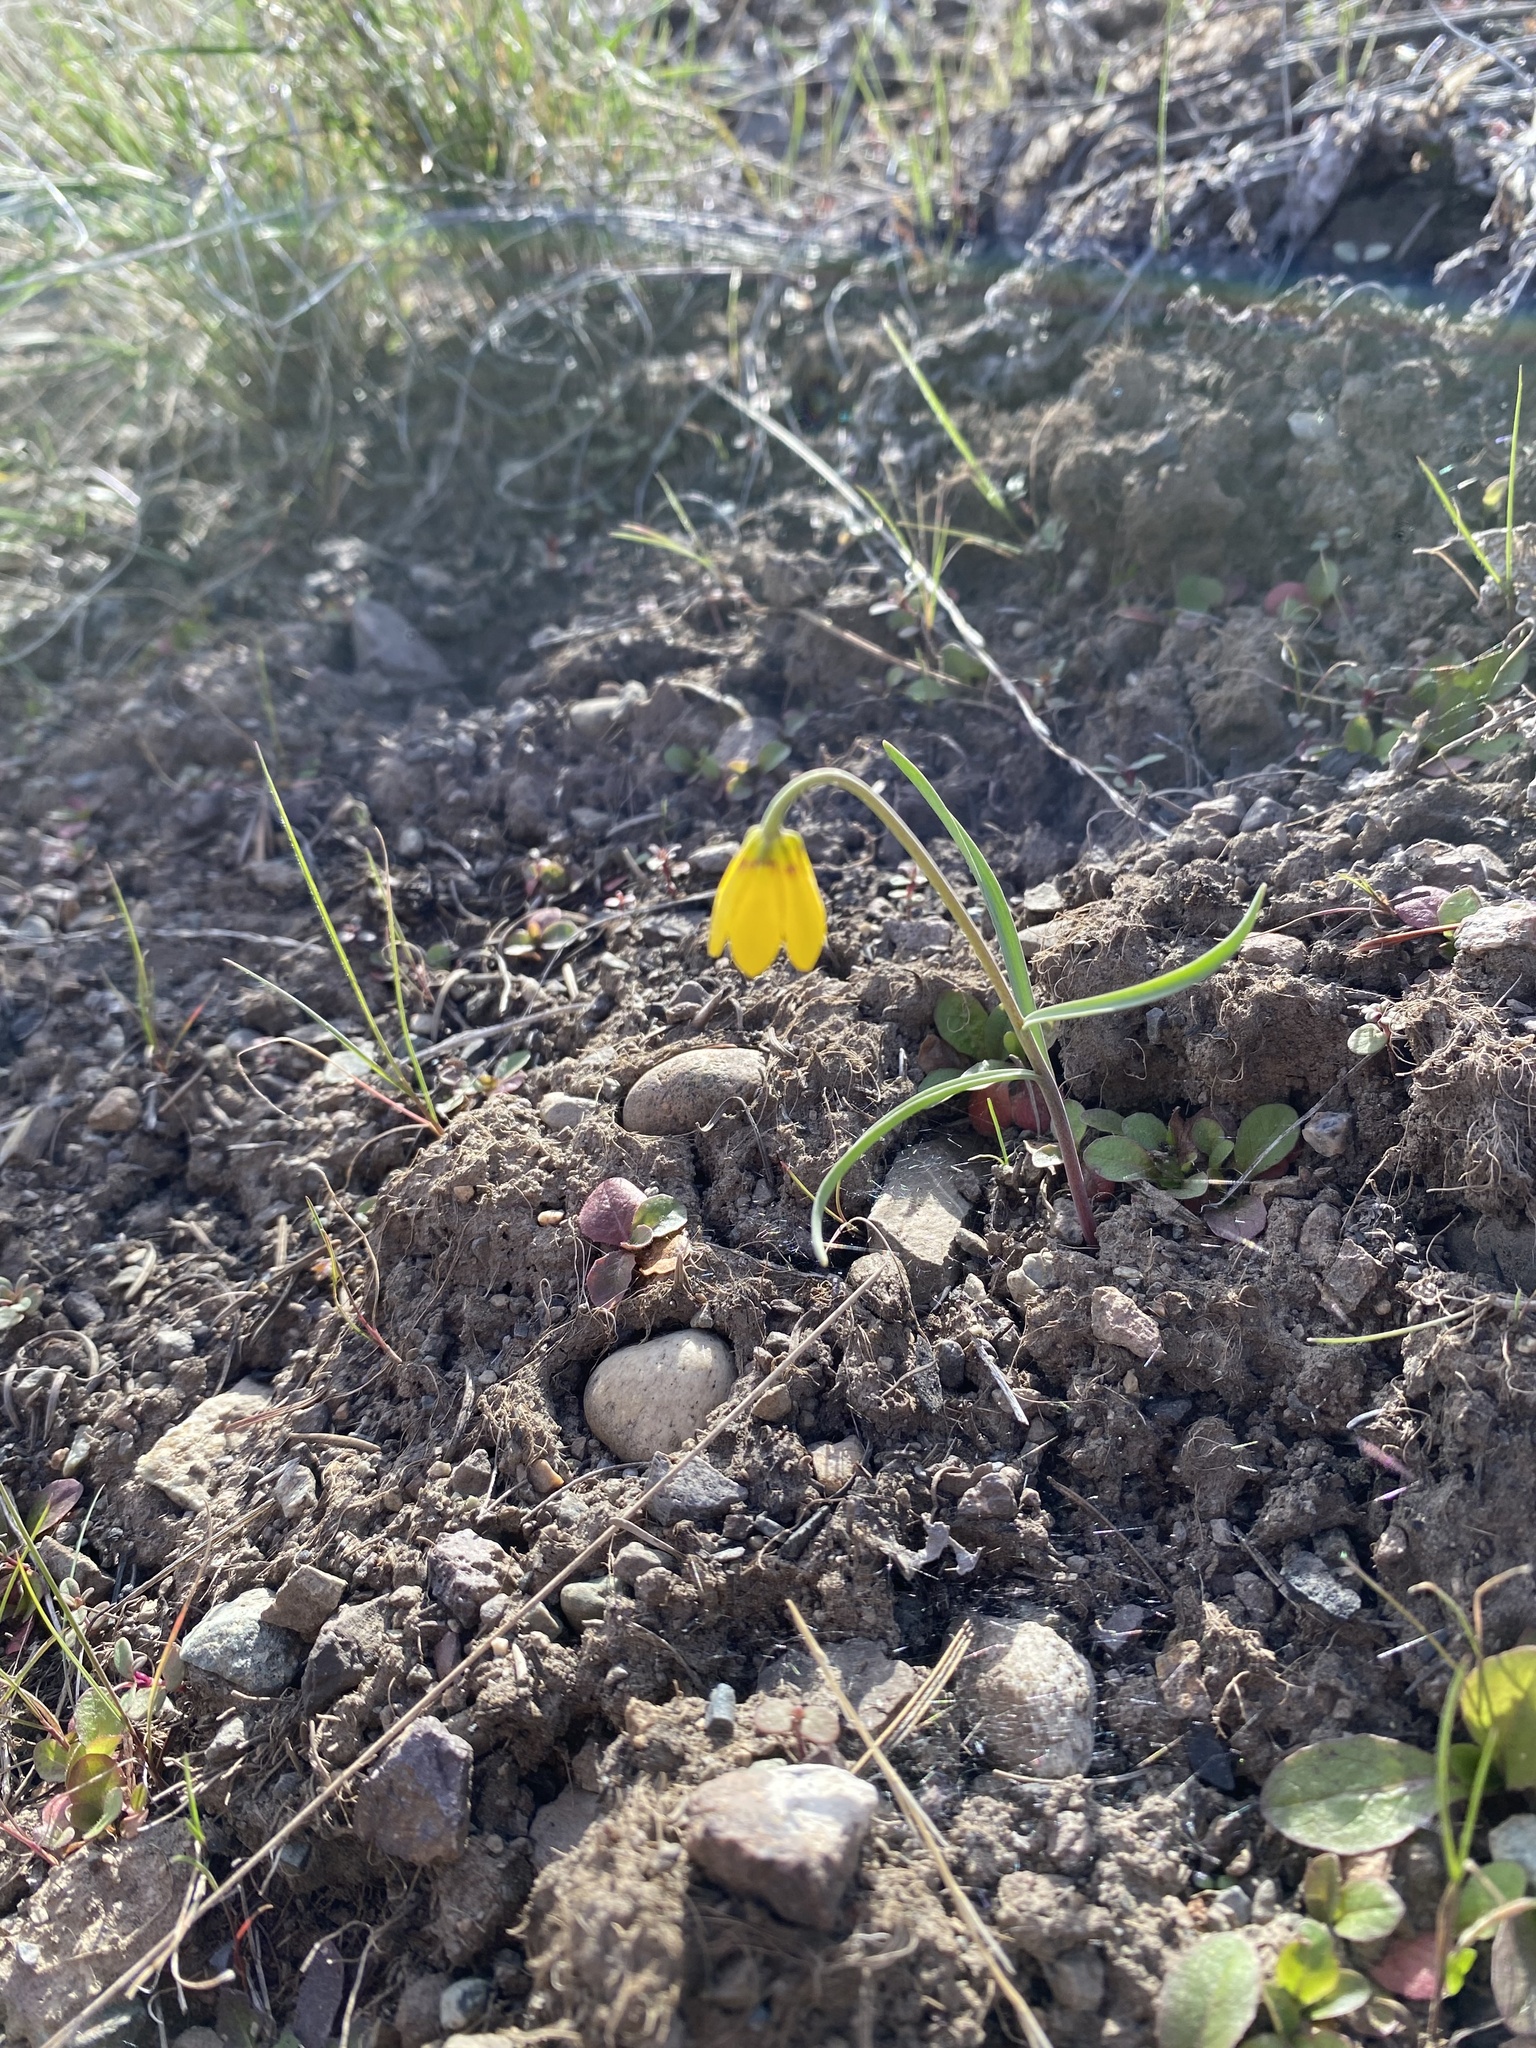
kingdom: Plantae
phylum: Tracheophyta
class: Liliopsida
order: Liliales
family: Liliaceae
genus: Fritillaria
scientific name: Fritillaria pudica
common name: Yellow fritillary
